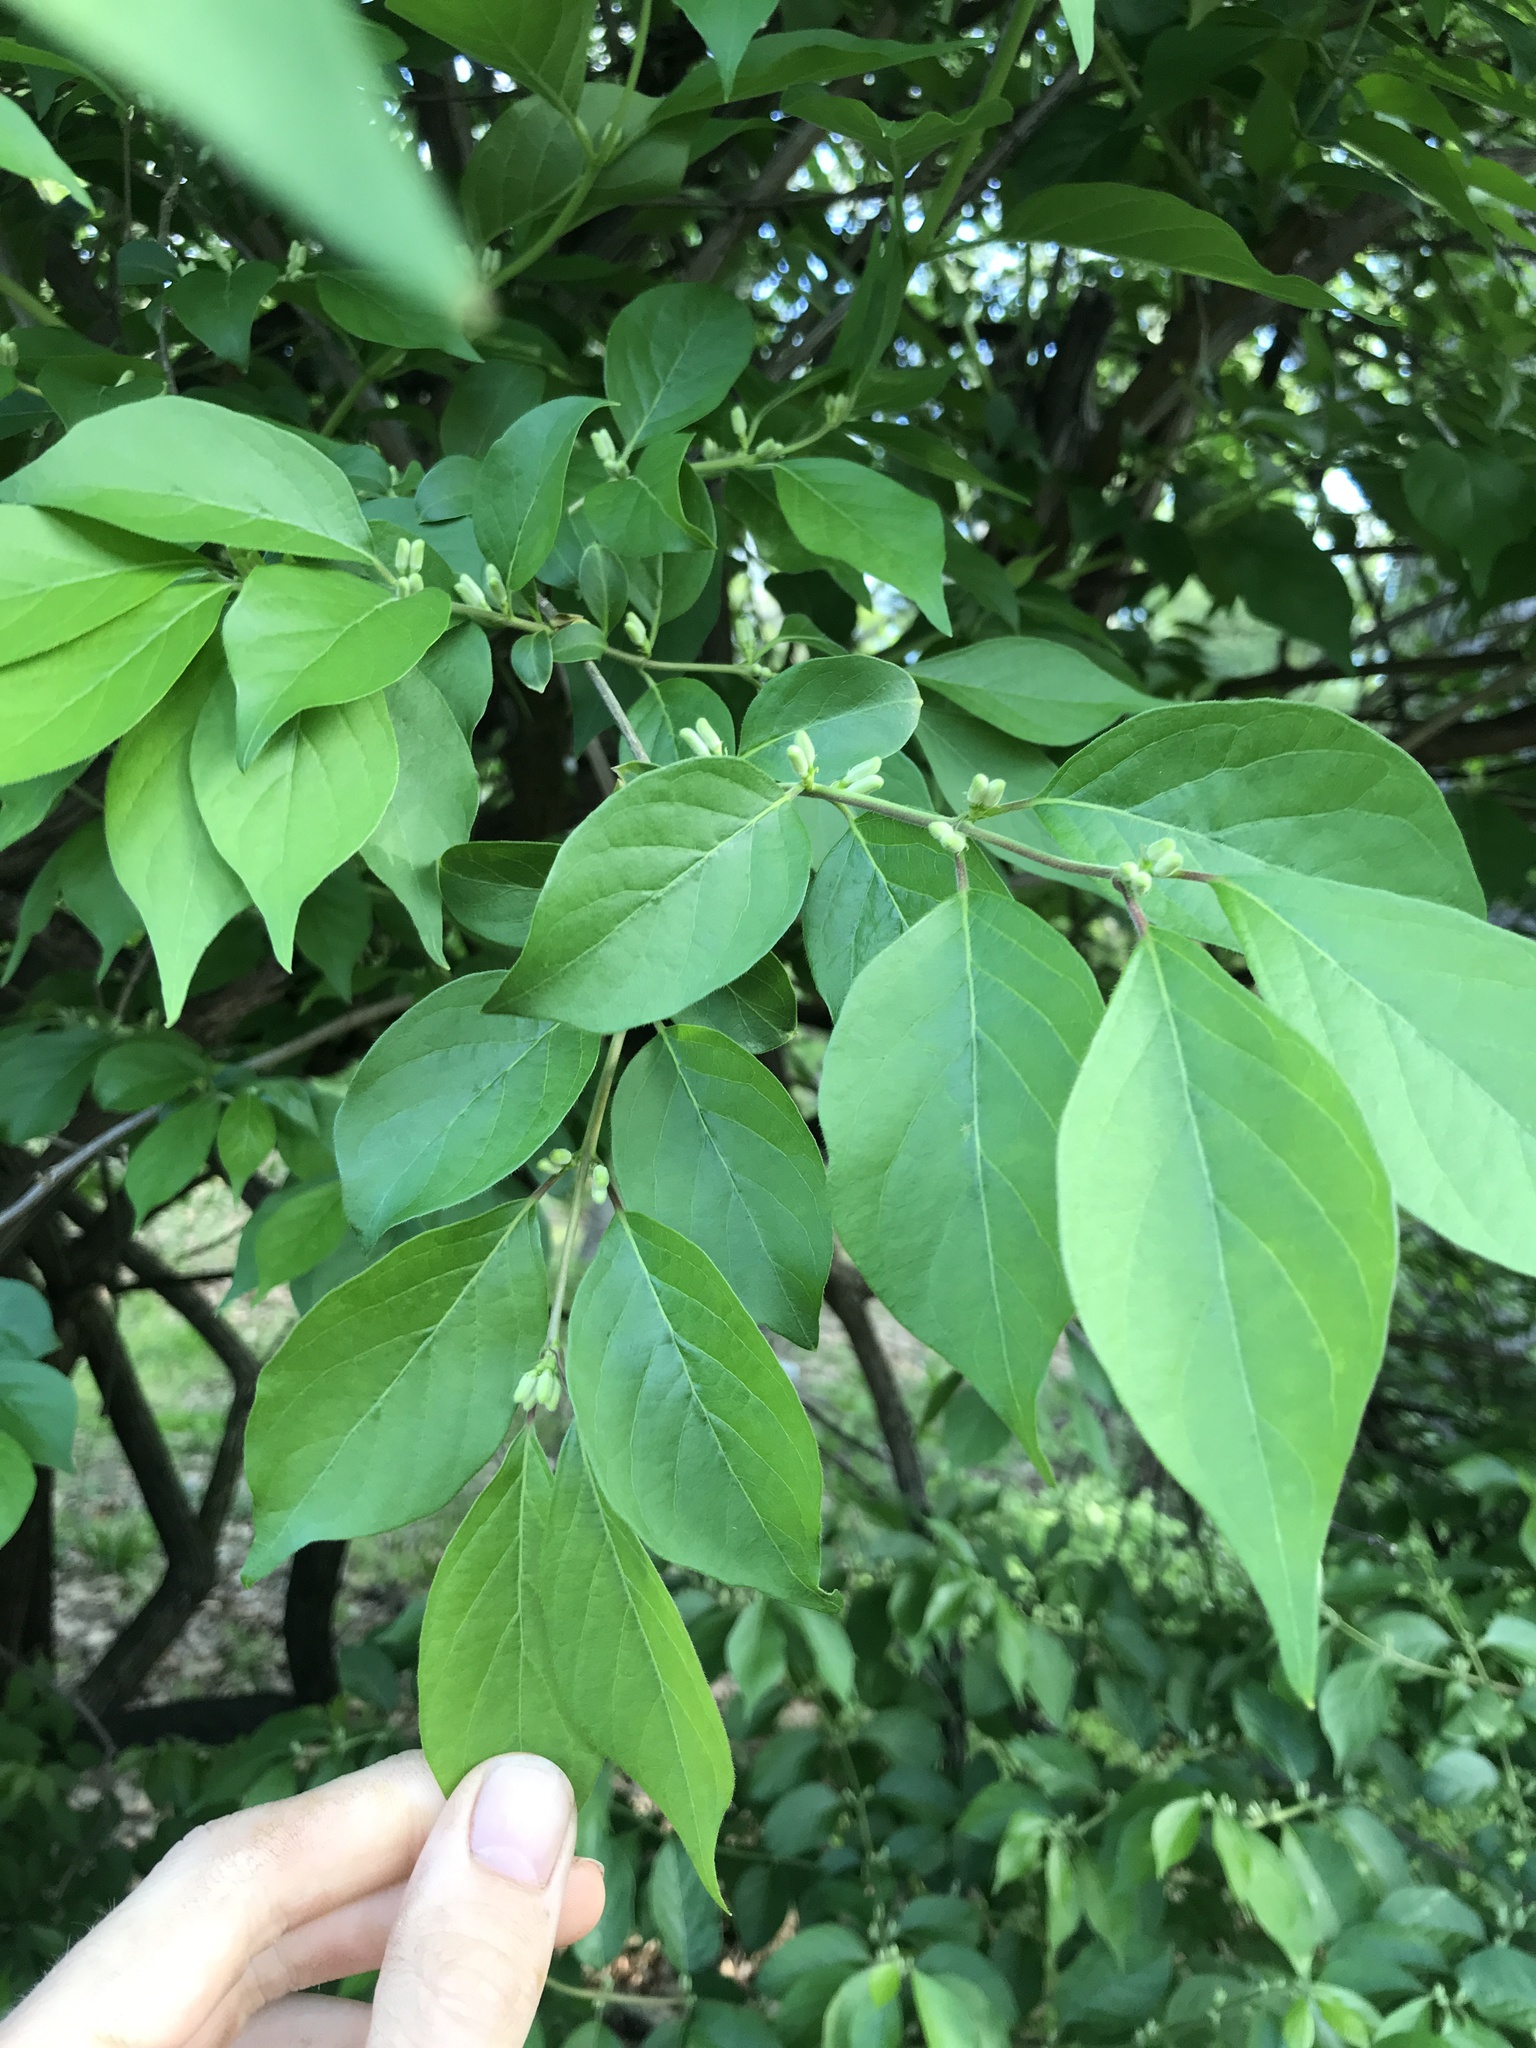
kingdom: Plantae
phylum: Tracheophyta
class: Magnoliopsida
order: Dipsacales
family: Caprifoliaceae
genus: Lonicera
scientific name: Lonicera maackii
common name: Amur honeysuckle
